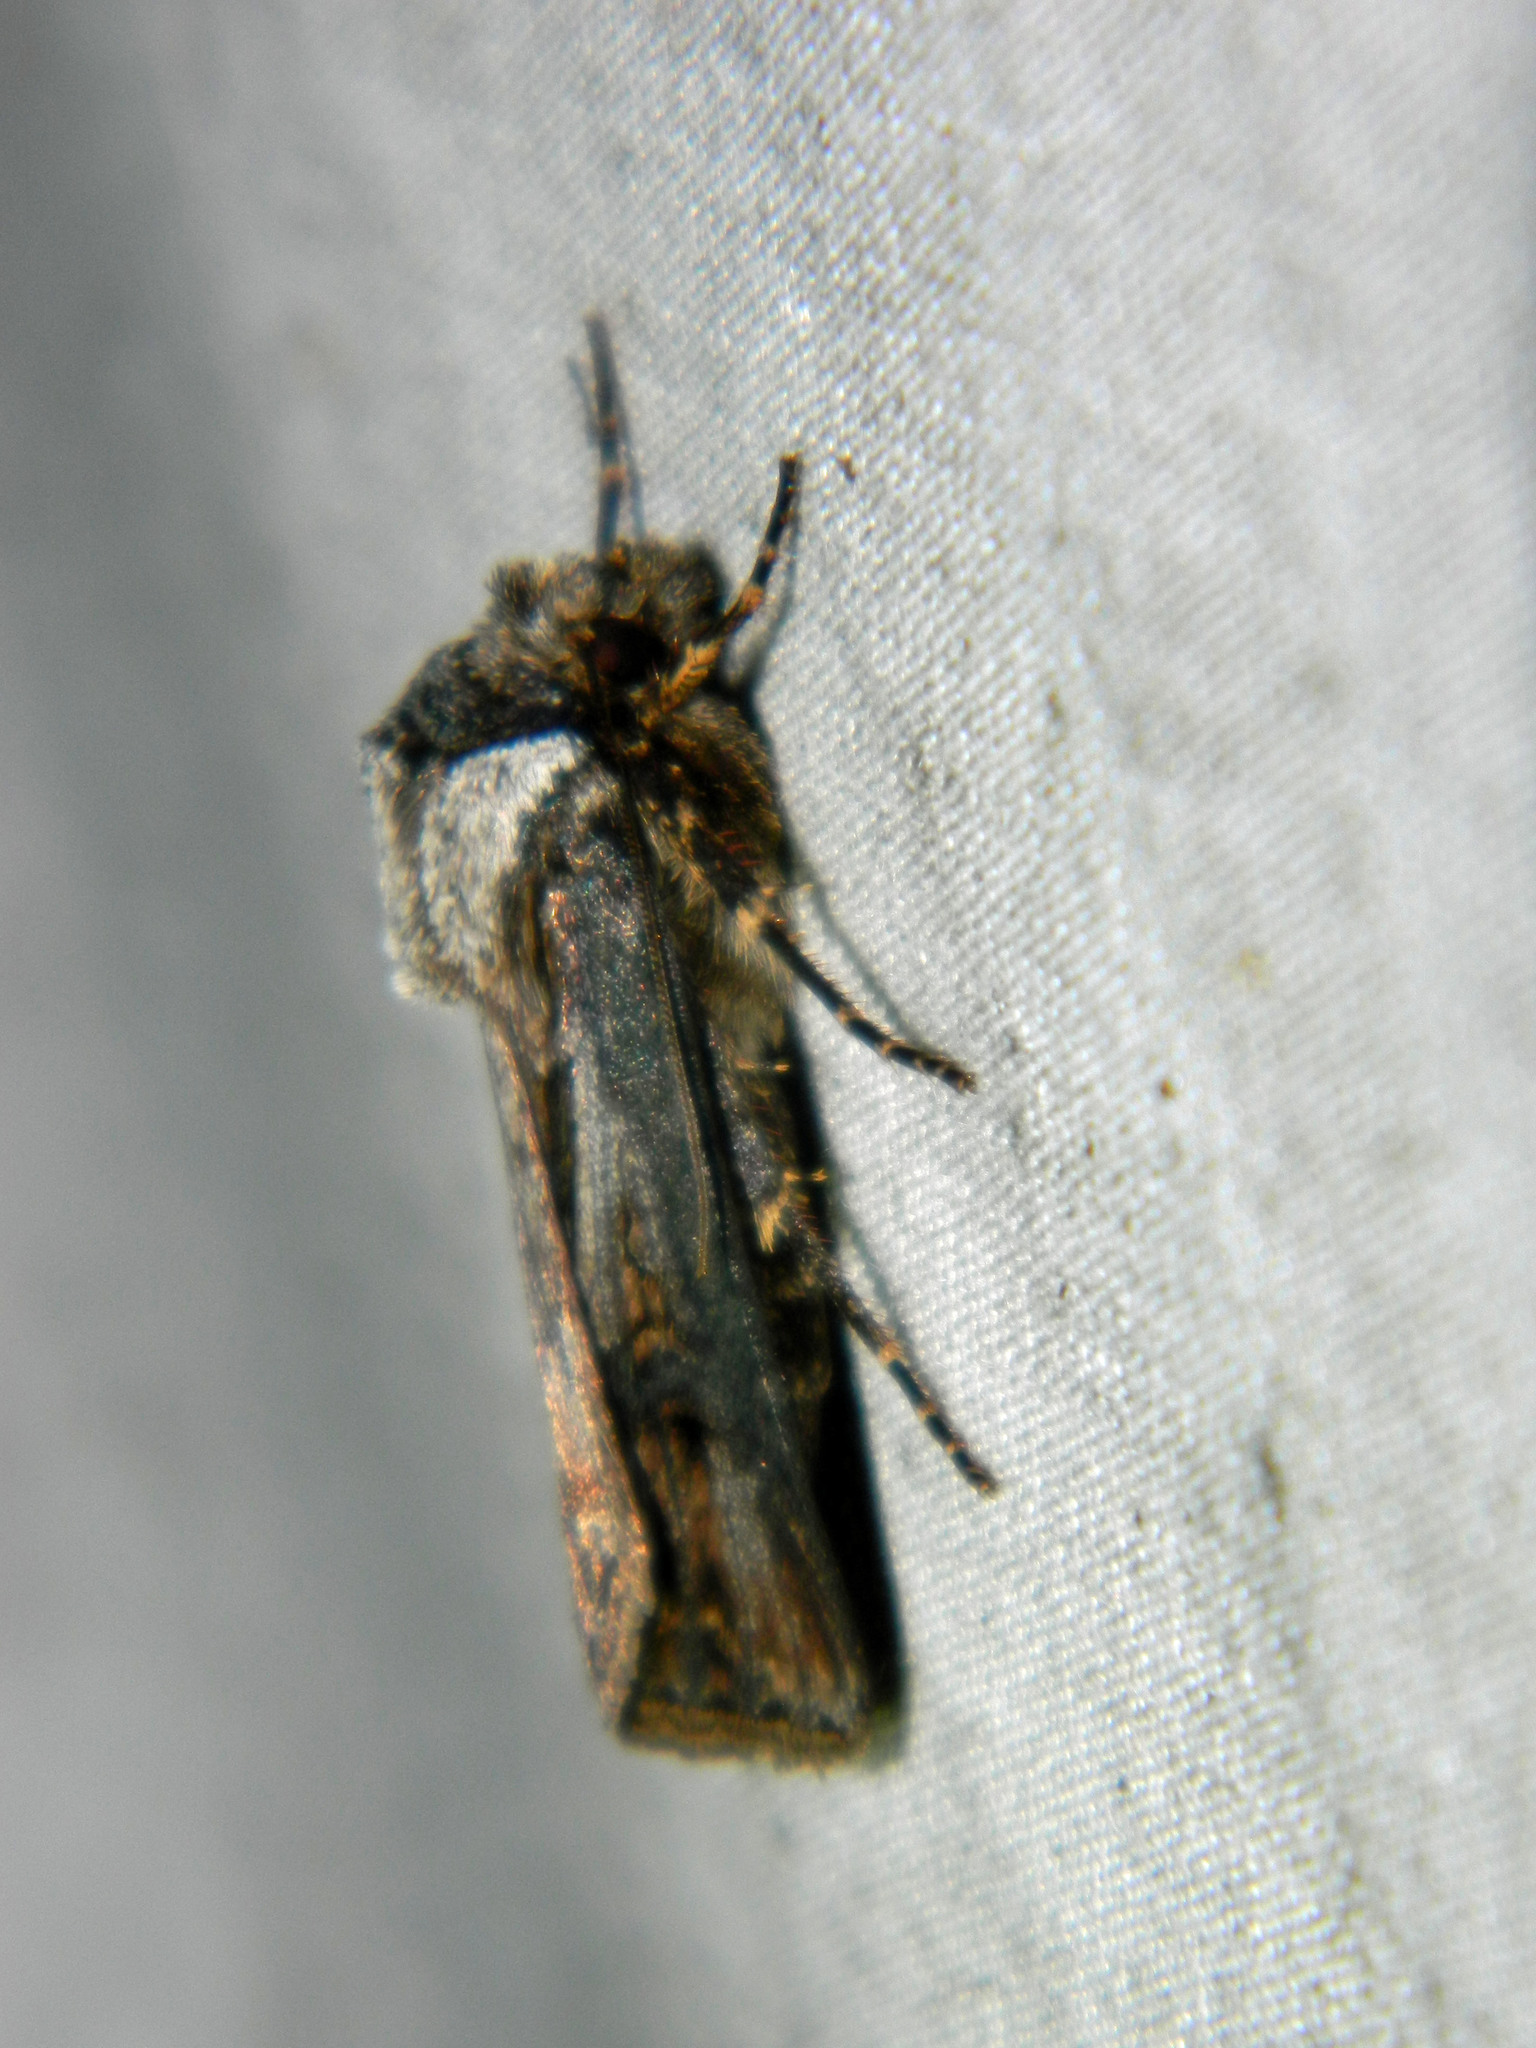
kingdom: Animalia
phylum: Arthropoda
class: Insecta
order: Lepidoptera
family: Noctuidae
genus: Agrotis
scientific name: Agrotis venerabilis
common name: Venerable dart
